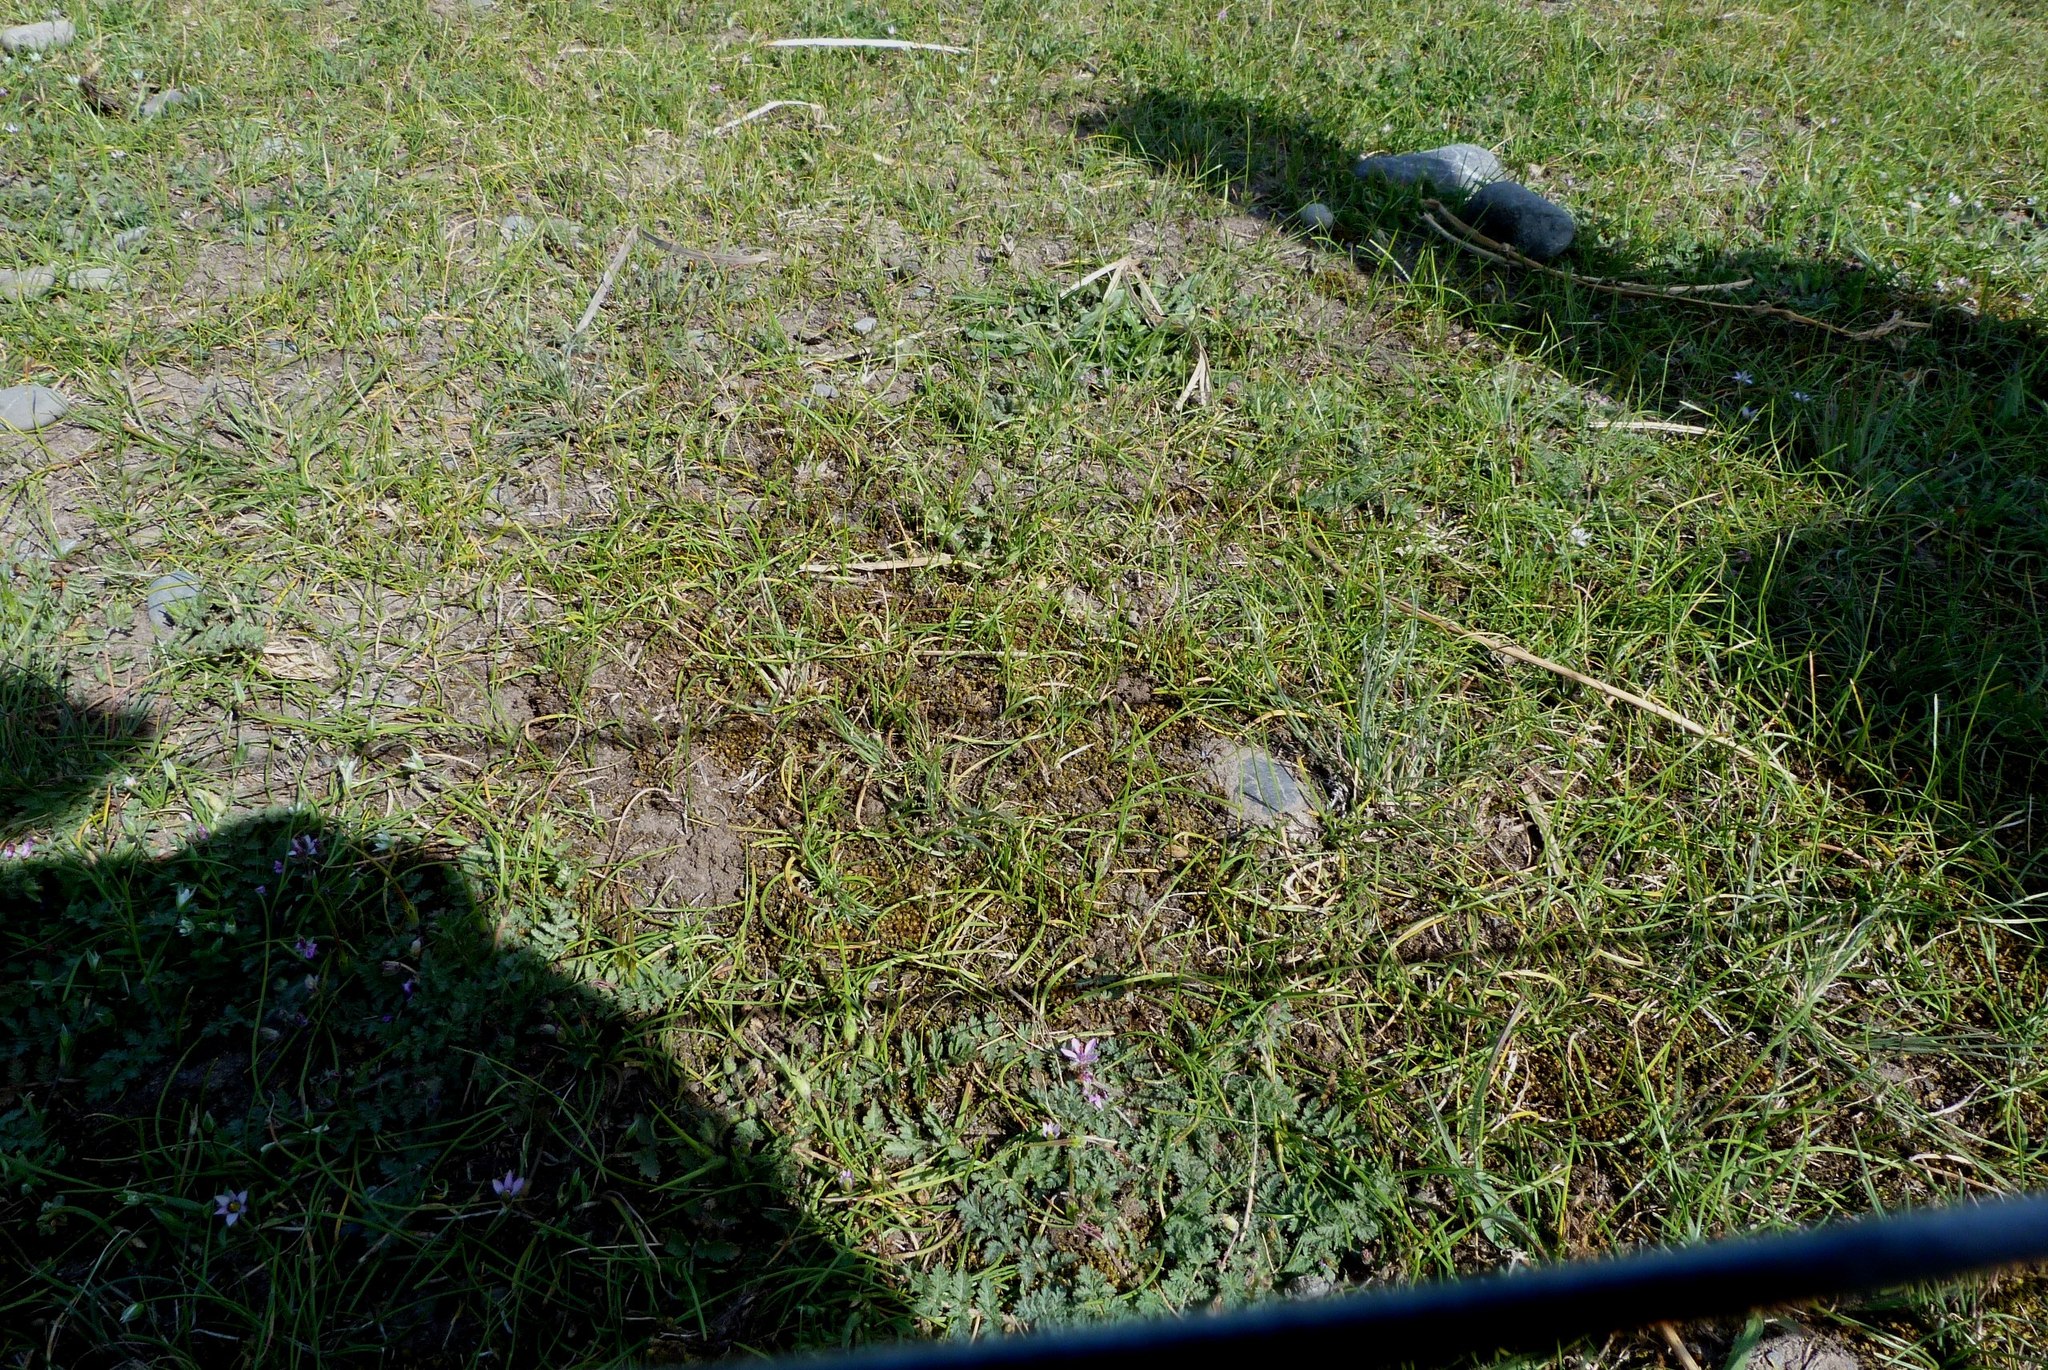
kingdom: Plantae
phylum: Tracheophyta
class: Liliopsida
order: Asparagales
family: Orchidaceae
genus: Microtis
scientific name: Microtis unifolia
